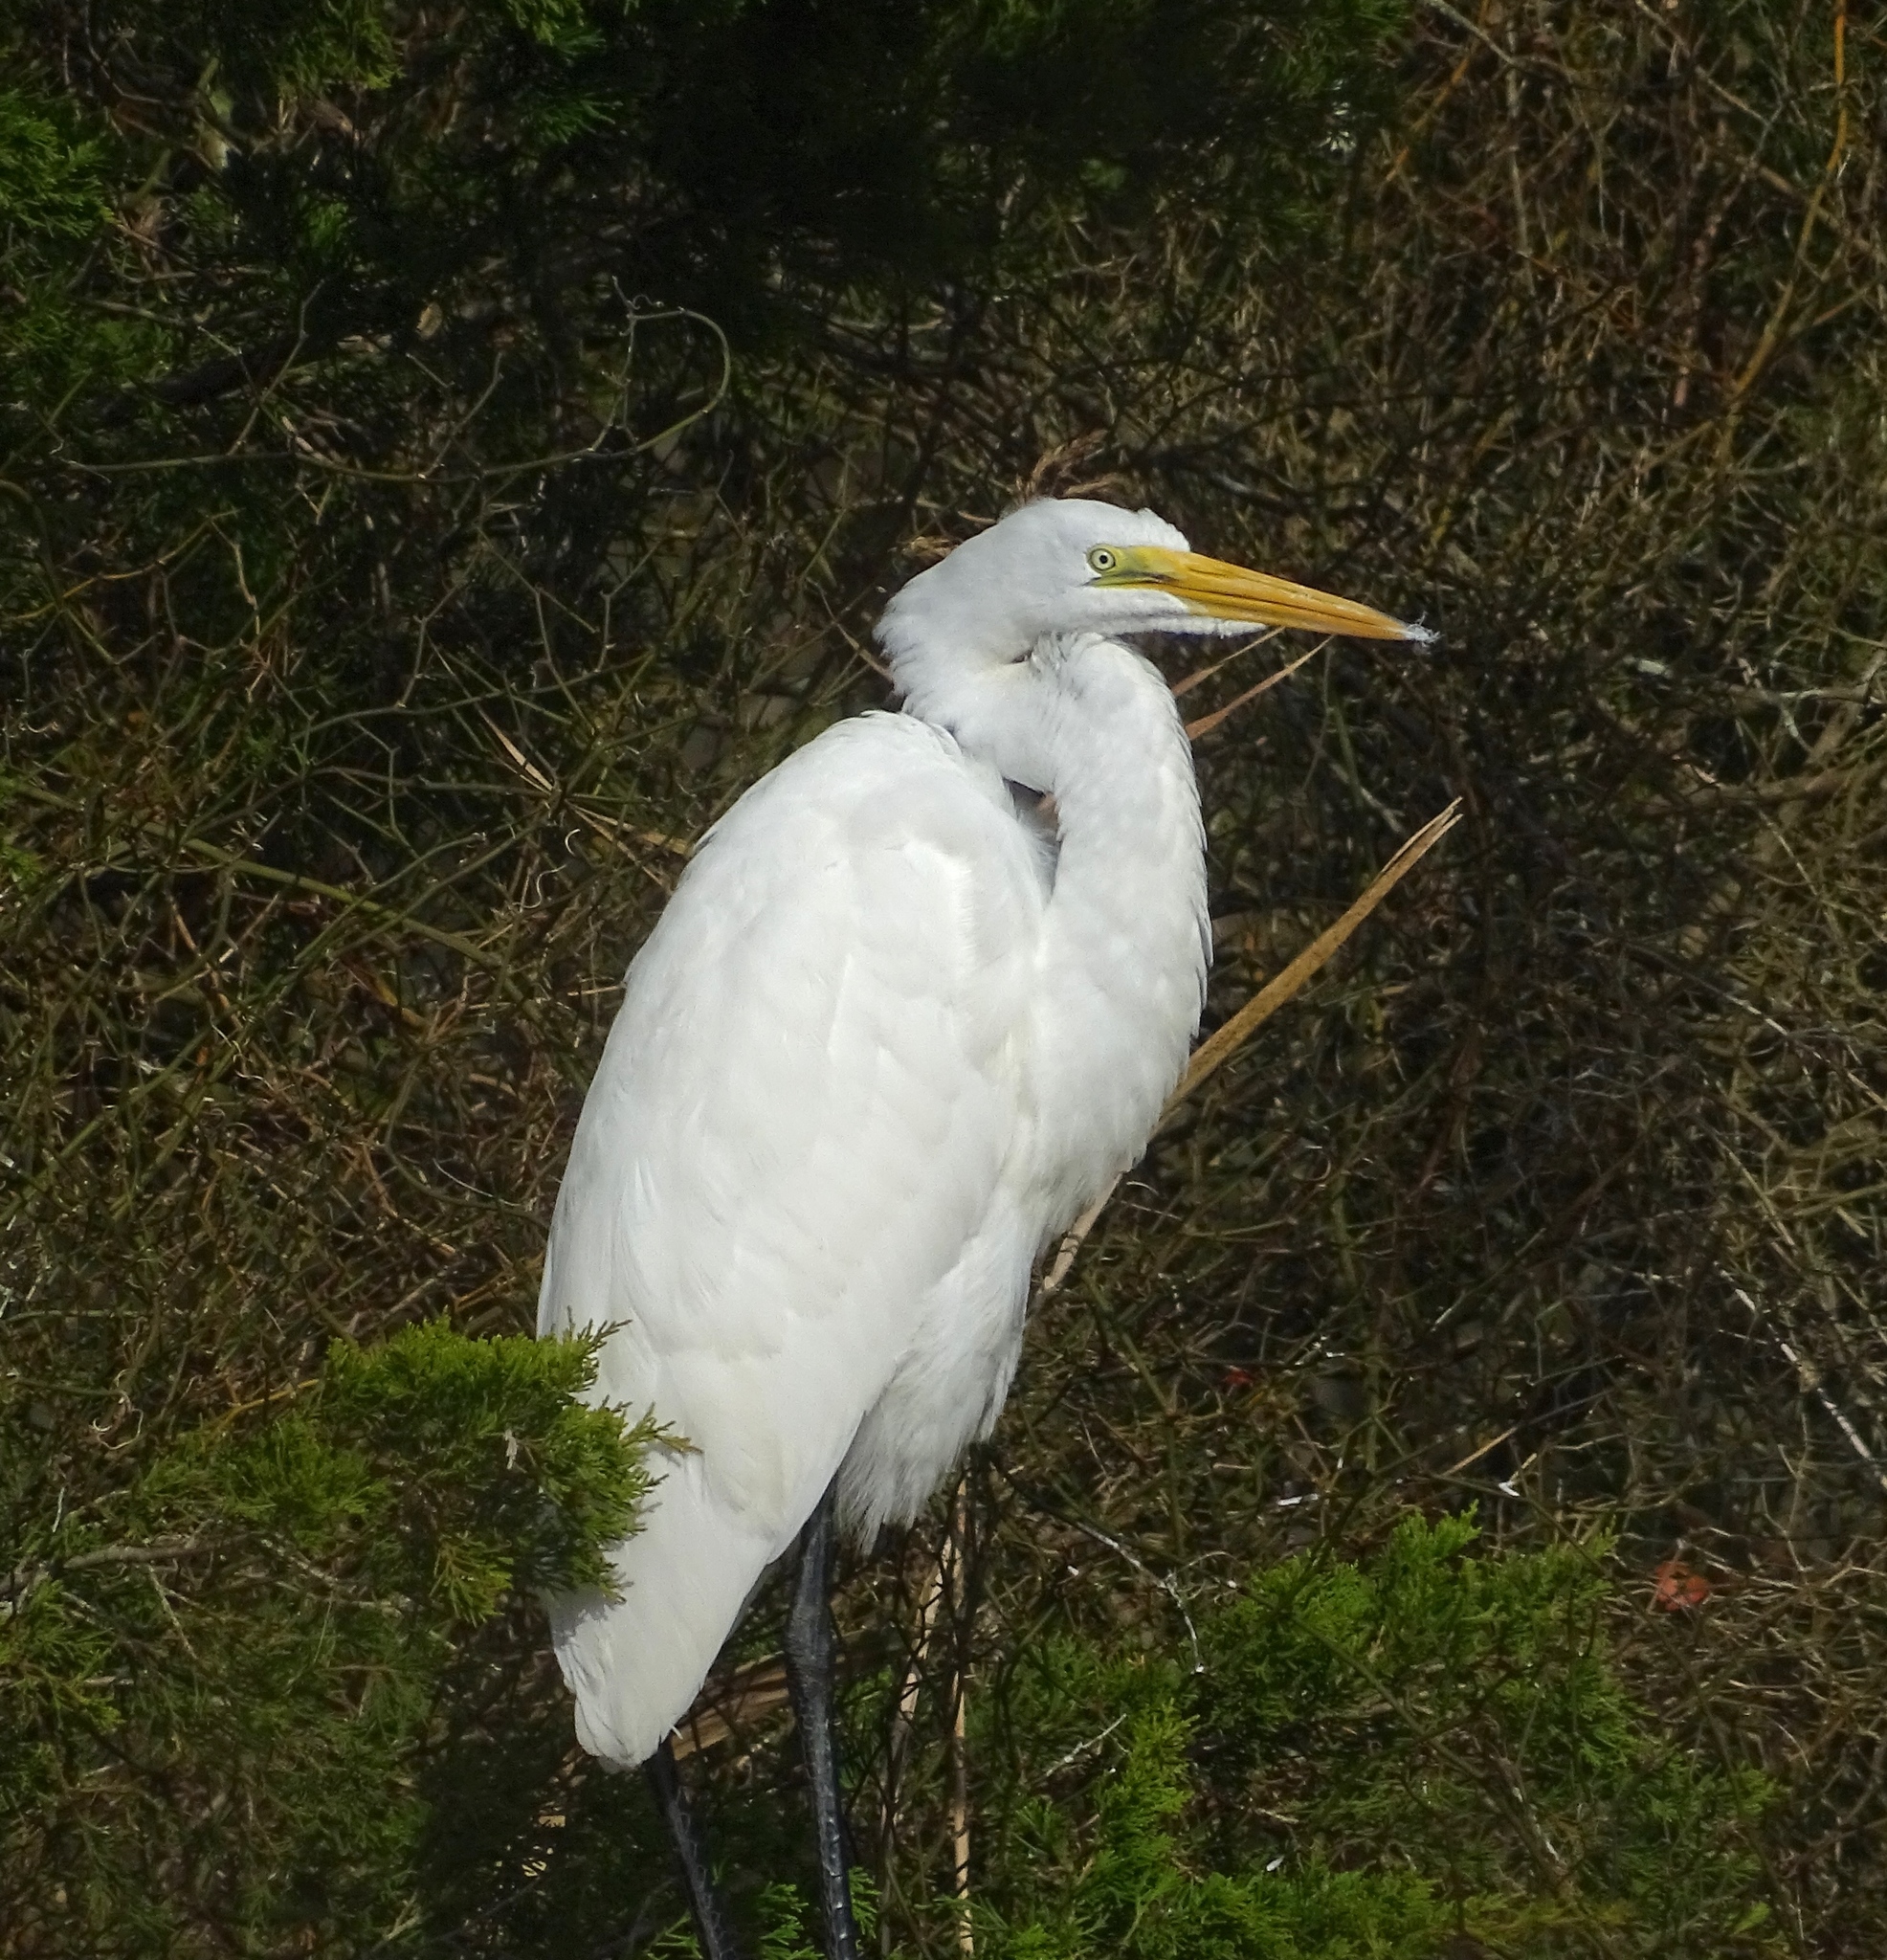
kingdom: Animalia
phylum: Chordata
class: Aves
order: Pelecaniformes
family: Ardeidae
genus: Ardea
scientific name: Ardea alba
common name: Great egret
